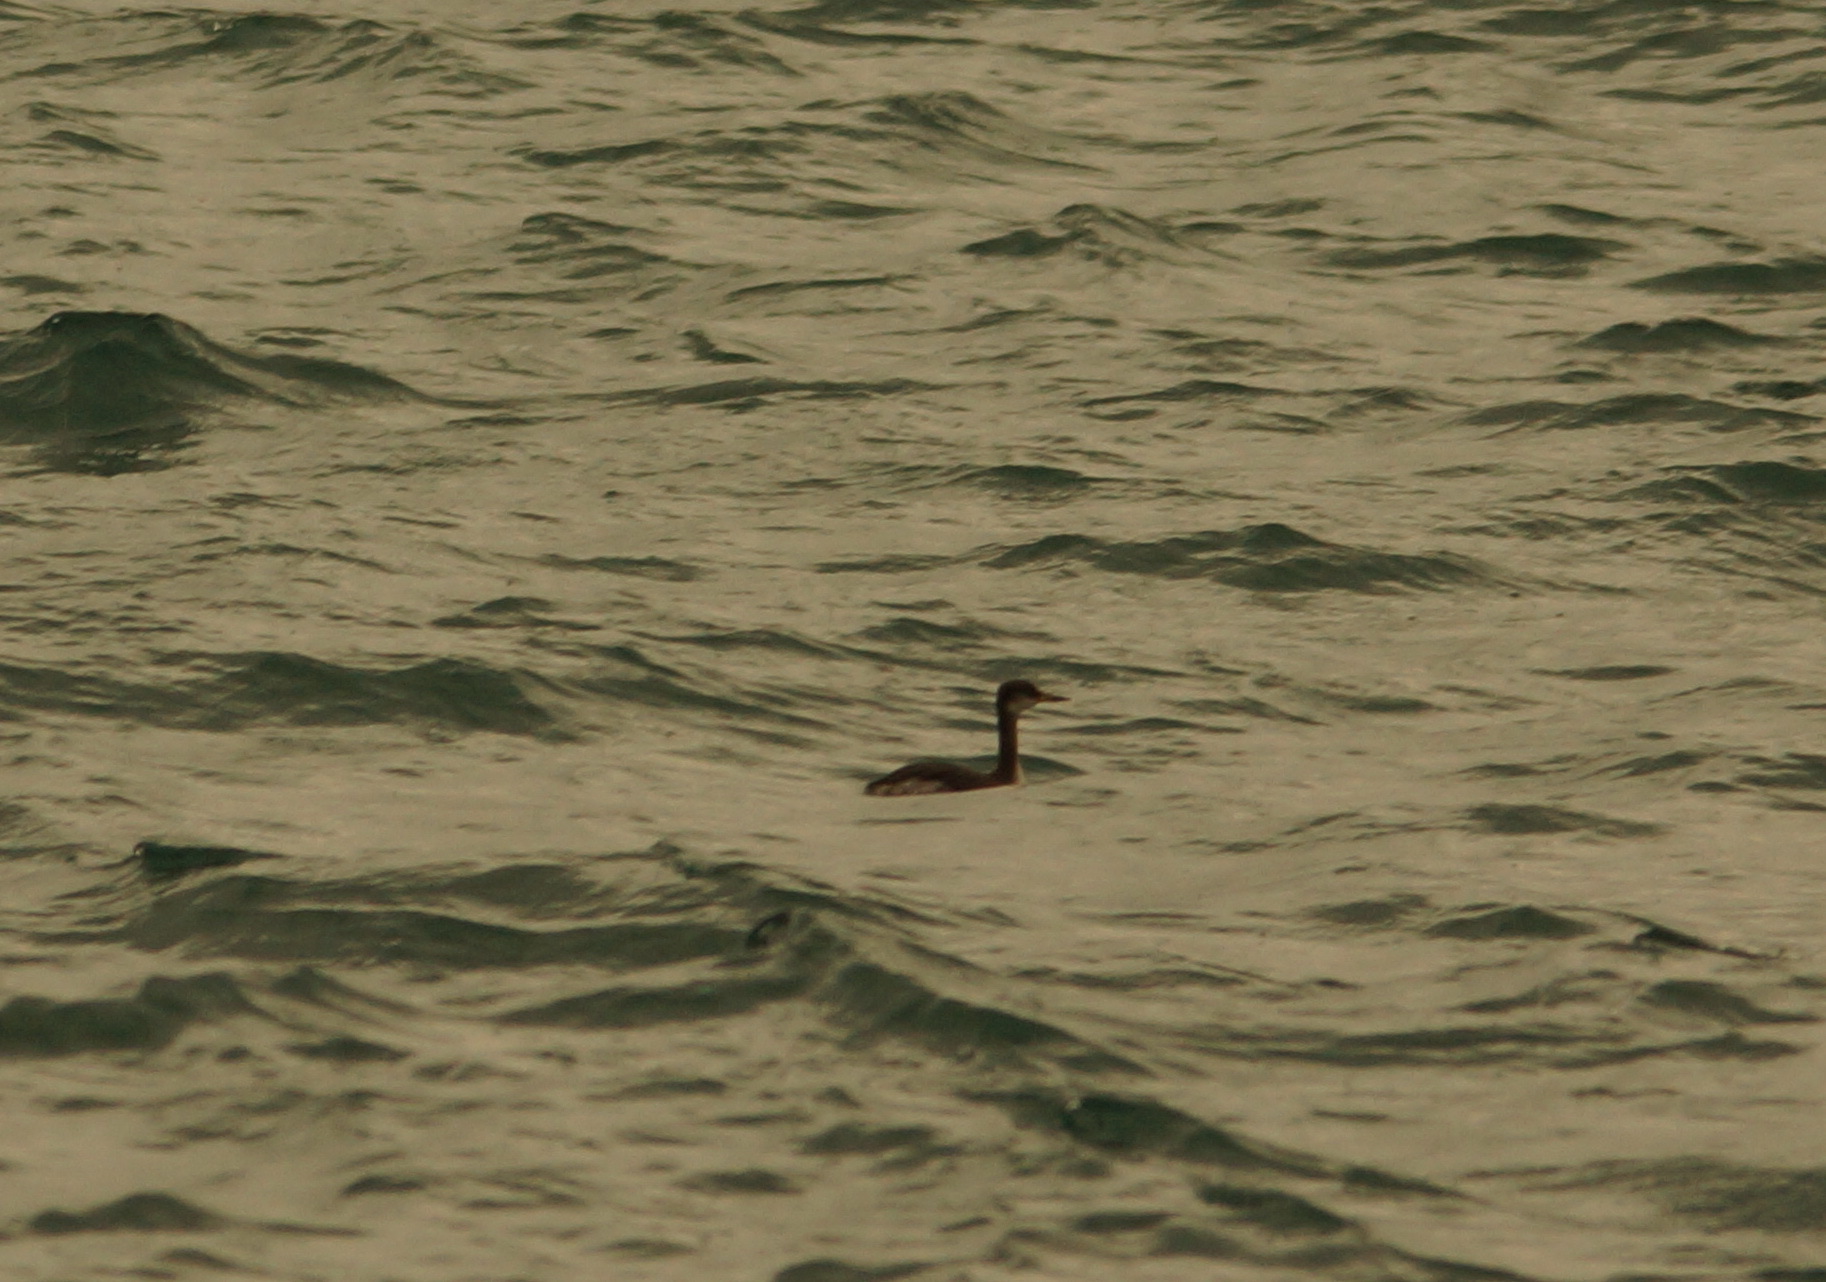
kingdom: Animalia
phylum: Chordata
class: Aves
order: Podicipediformes
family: Podicipedidae
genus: Podiceps
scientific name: Podiceps grisegena
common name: Red-necked grebe
